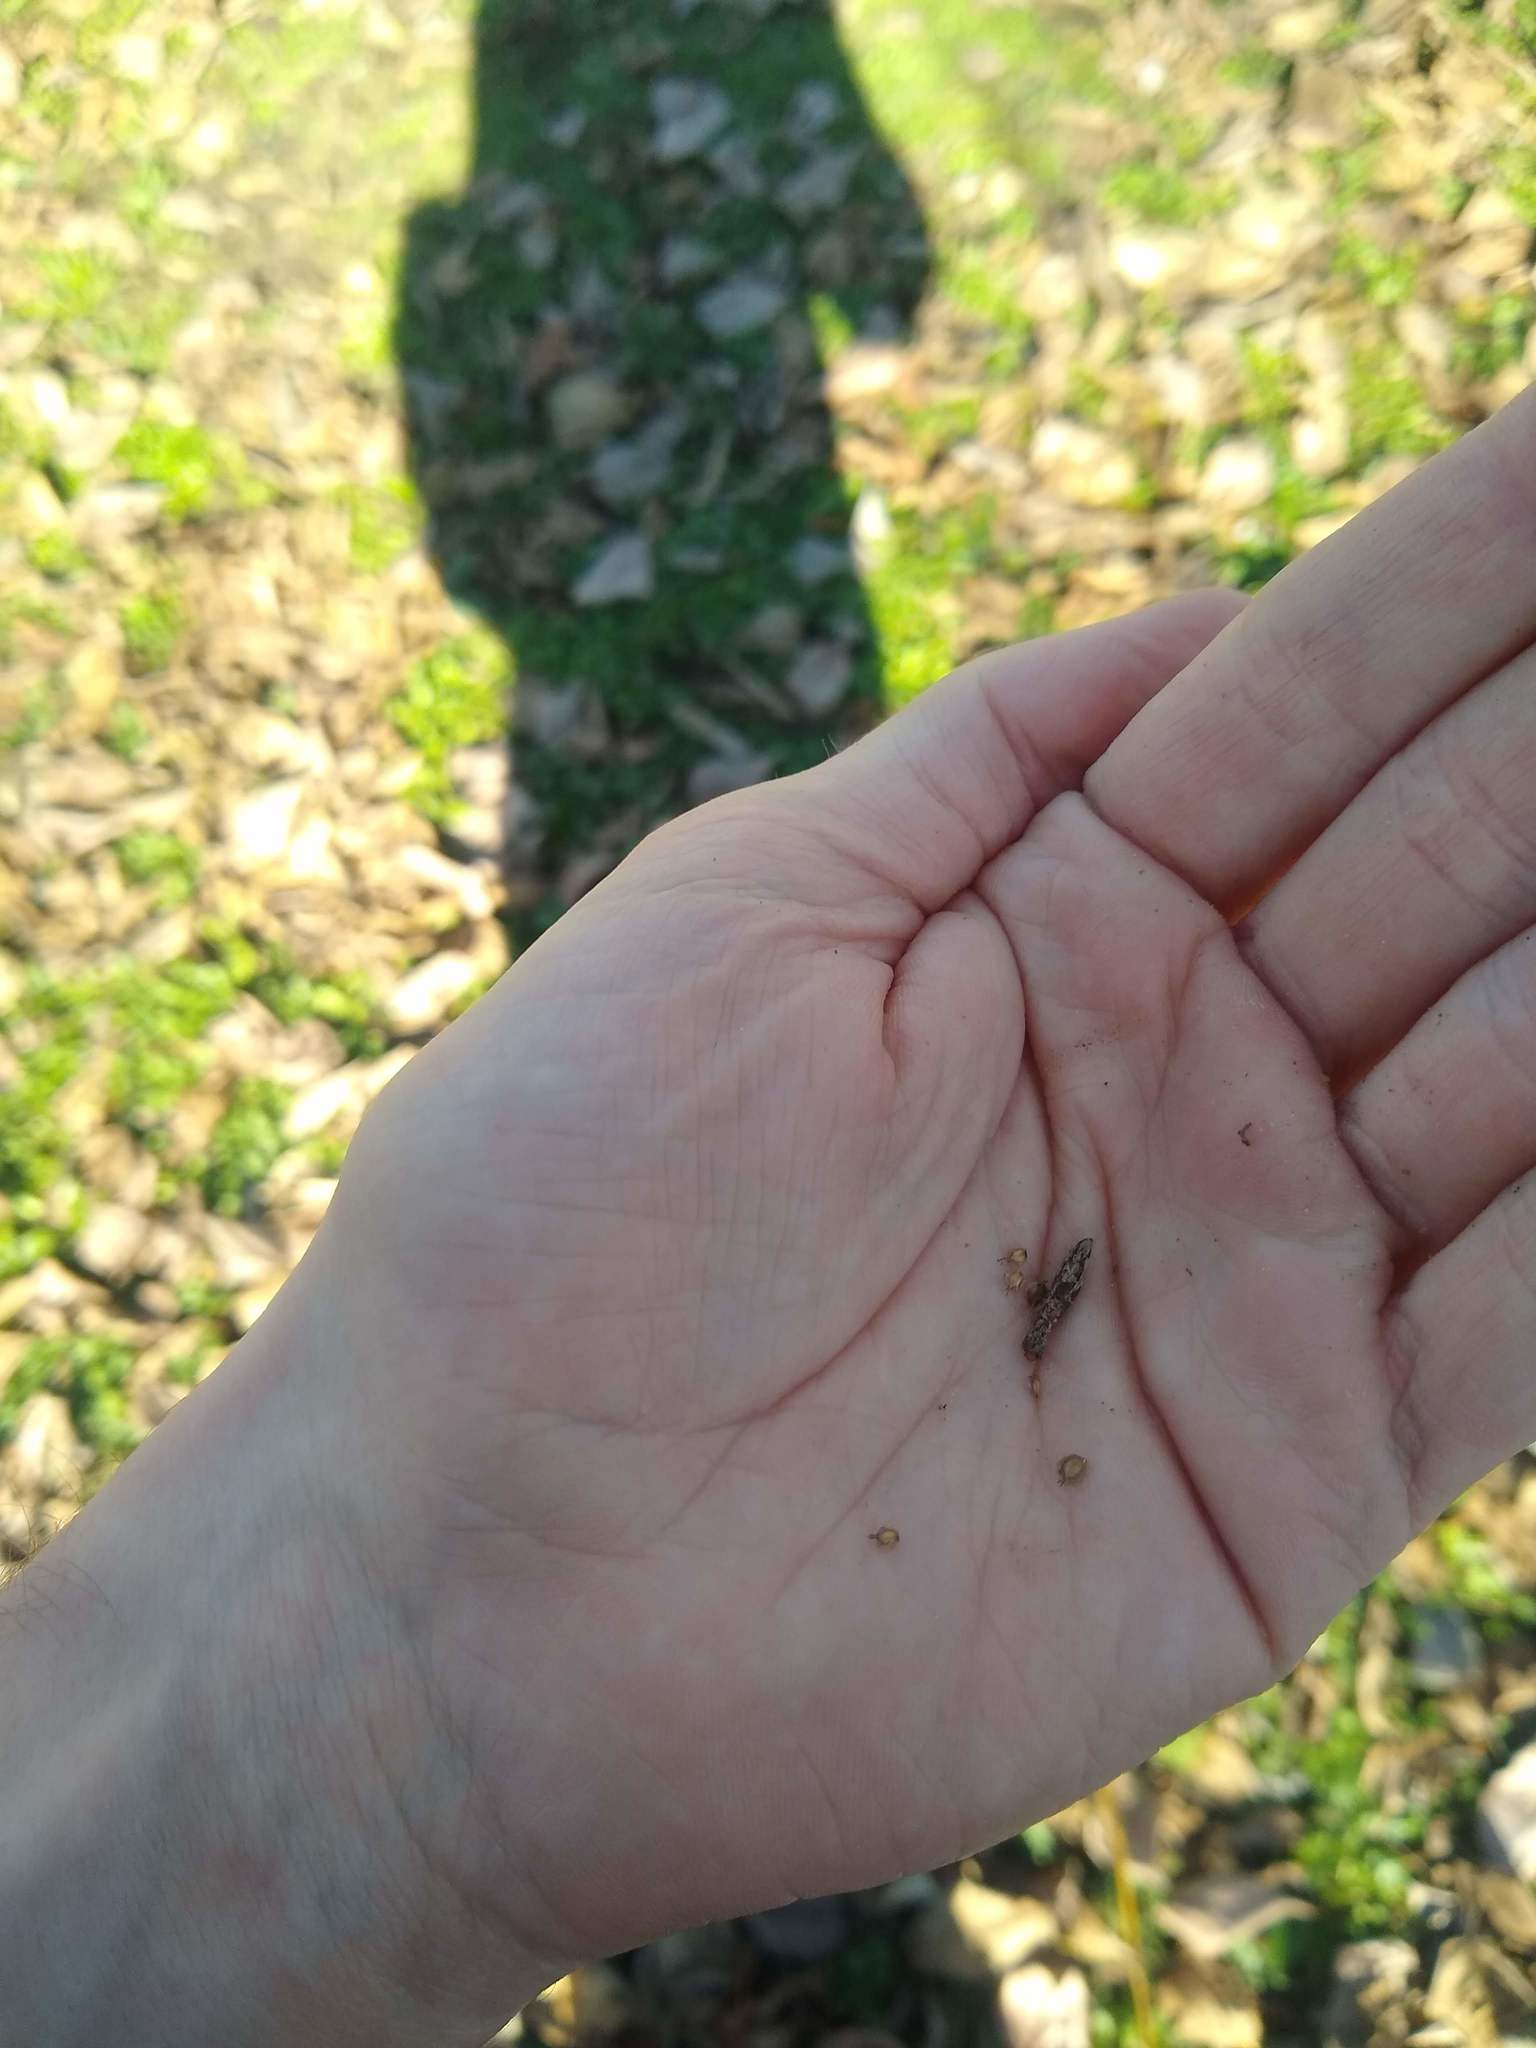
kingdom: Plantae
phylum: Tracheophyta
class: Magnoliopsida
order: Fagales
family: Betulaceae
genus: Alnus
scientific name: Alnus rubra
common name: Red alder
